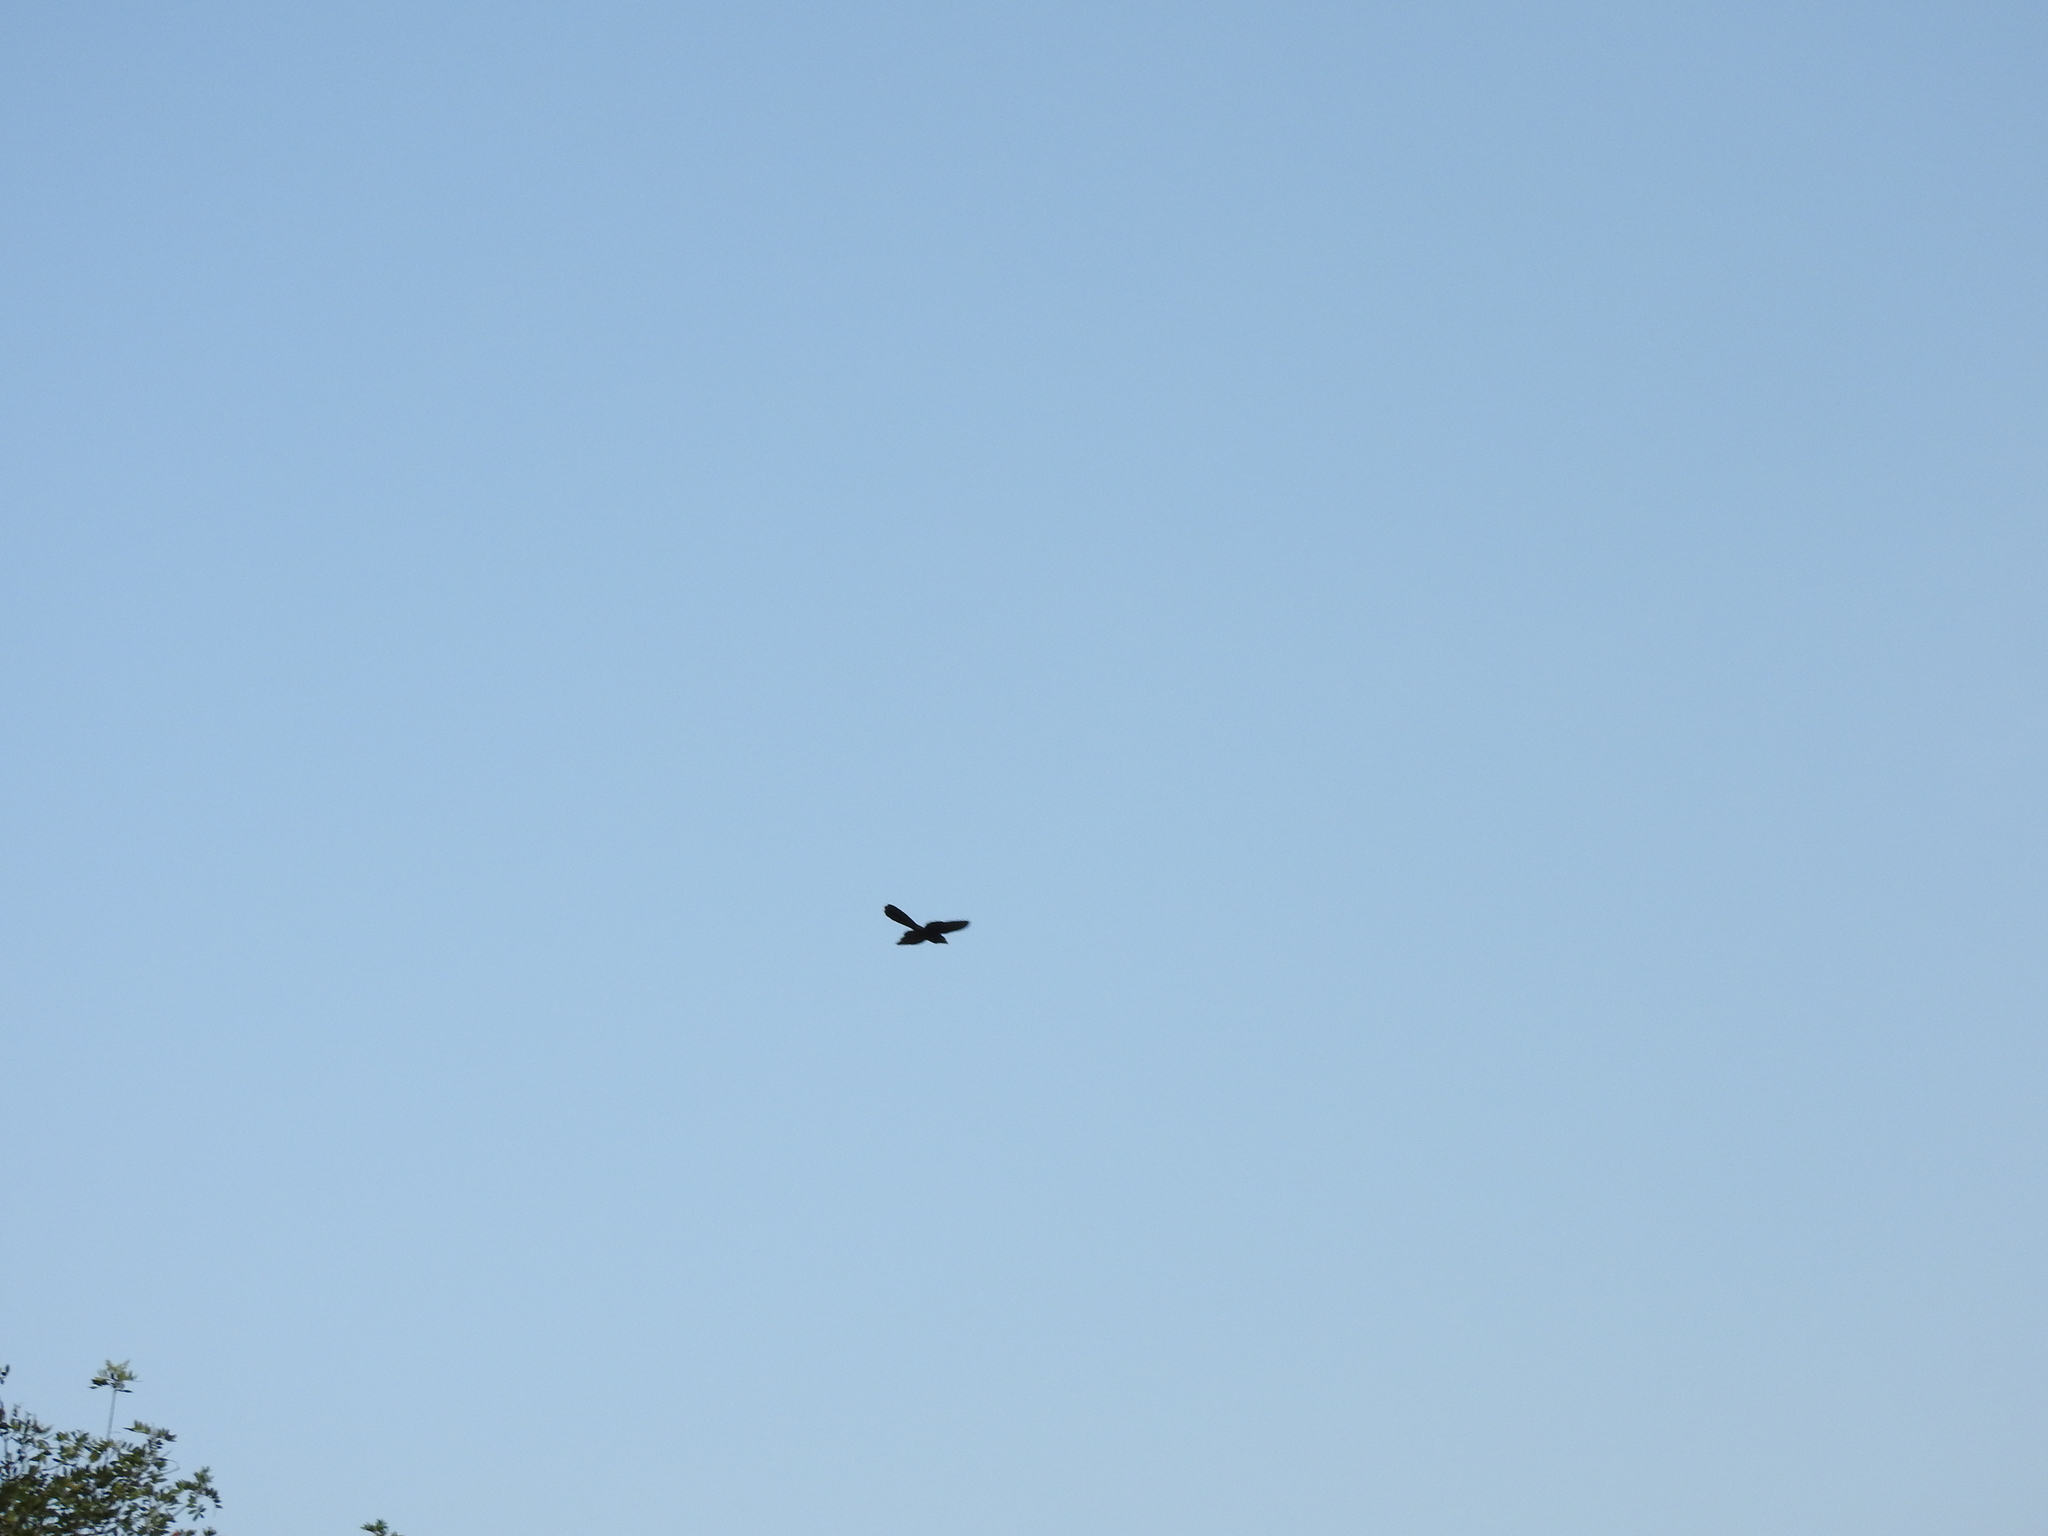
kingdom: Animalia
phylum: Chordata
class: Aves
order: Cuculiformes
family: Cuculidae
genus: Crotophaga
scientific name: Crotophaga sulcirostris
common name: Groove-billed ani
